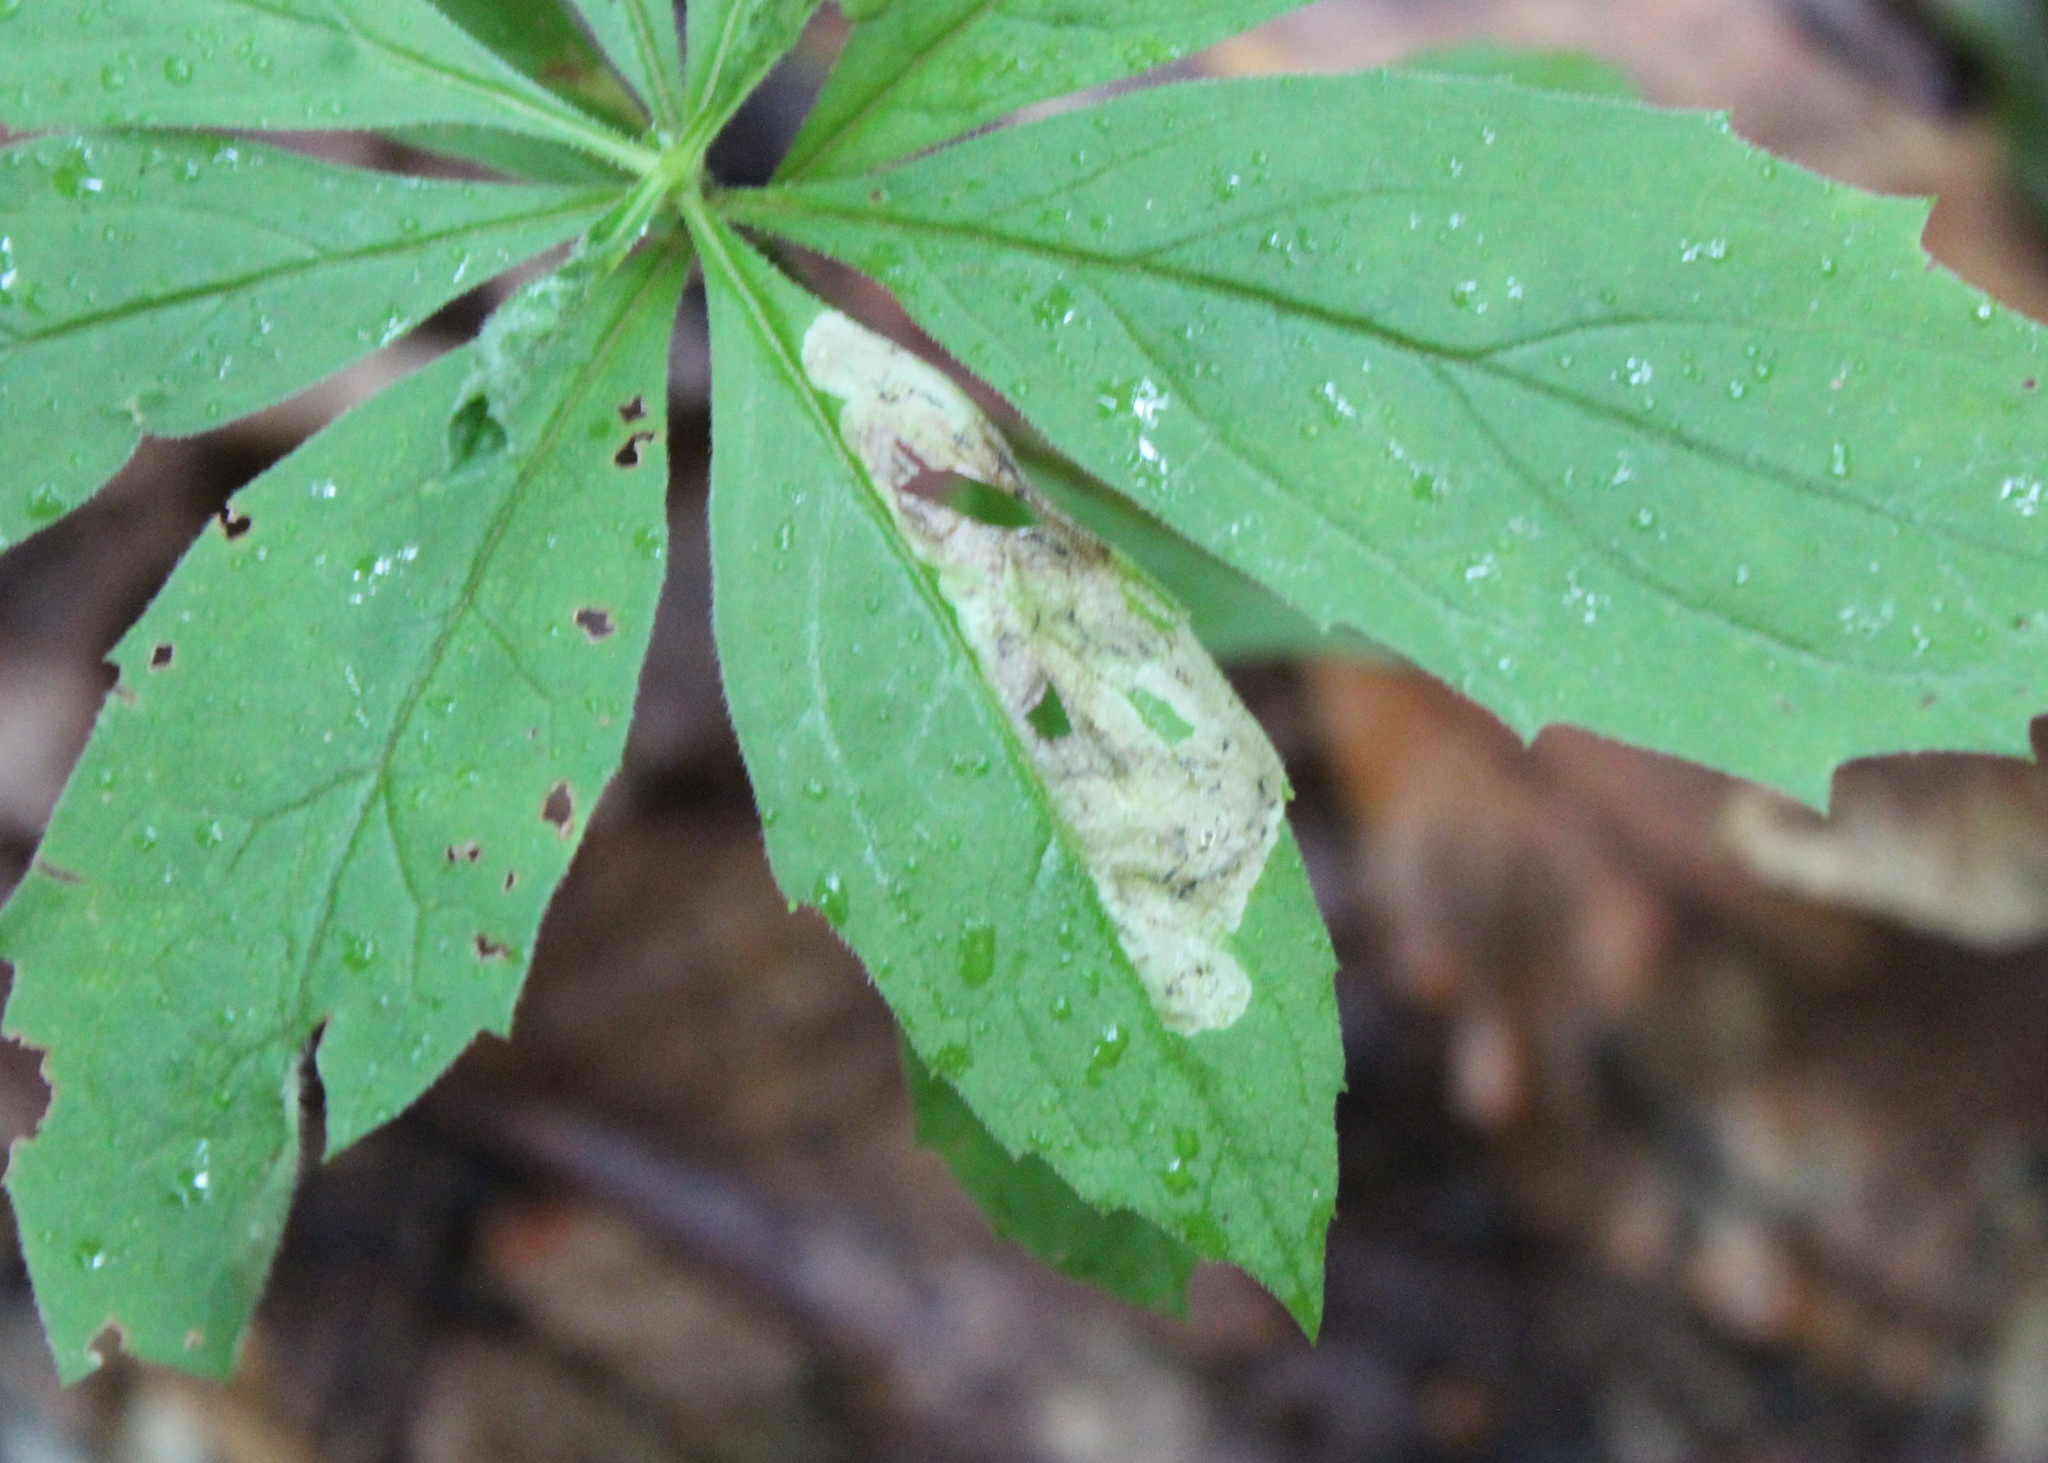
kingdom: Animalia
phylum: Arthropoda
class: Insecta
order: Diptera
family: Agromyzidae
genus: Liriomyza
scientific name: Liriomyza limopsis
